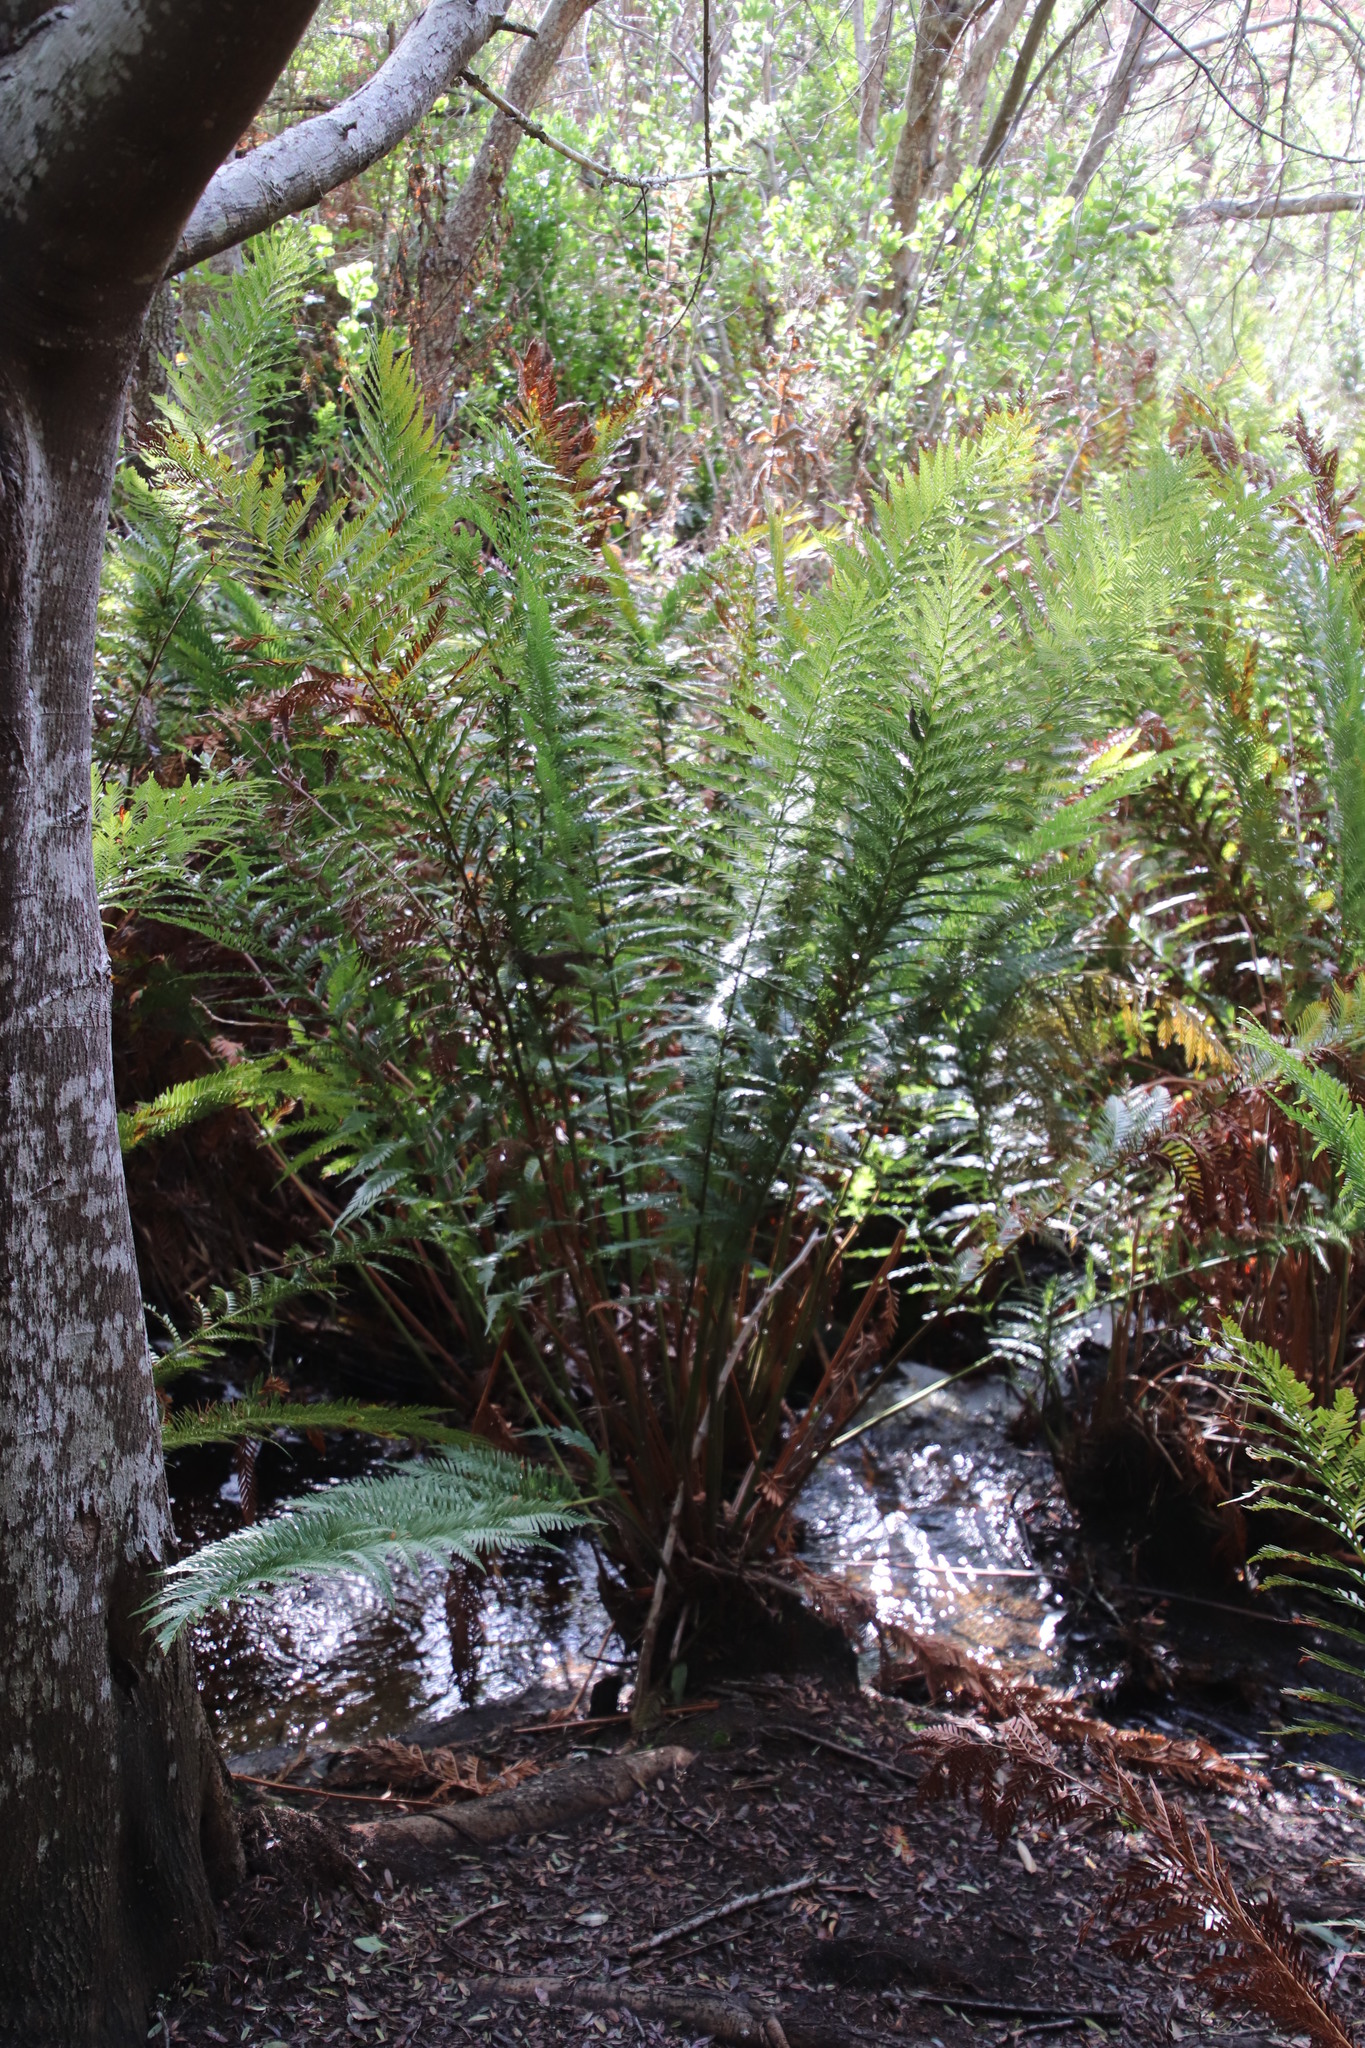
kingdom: Plantae
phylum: Tracheophyta
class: Polypodiopsida
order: Osmundales
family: Osmundaceae
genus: Todea
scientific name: Todea barbara
